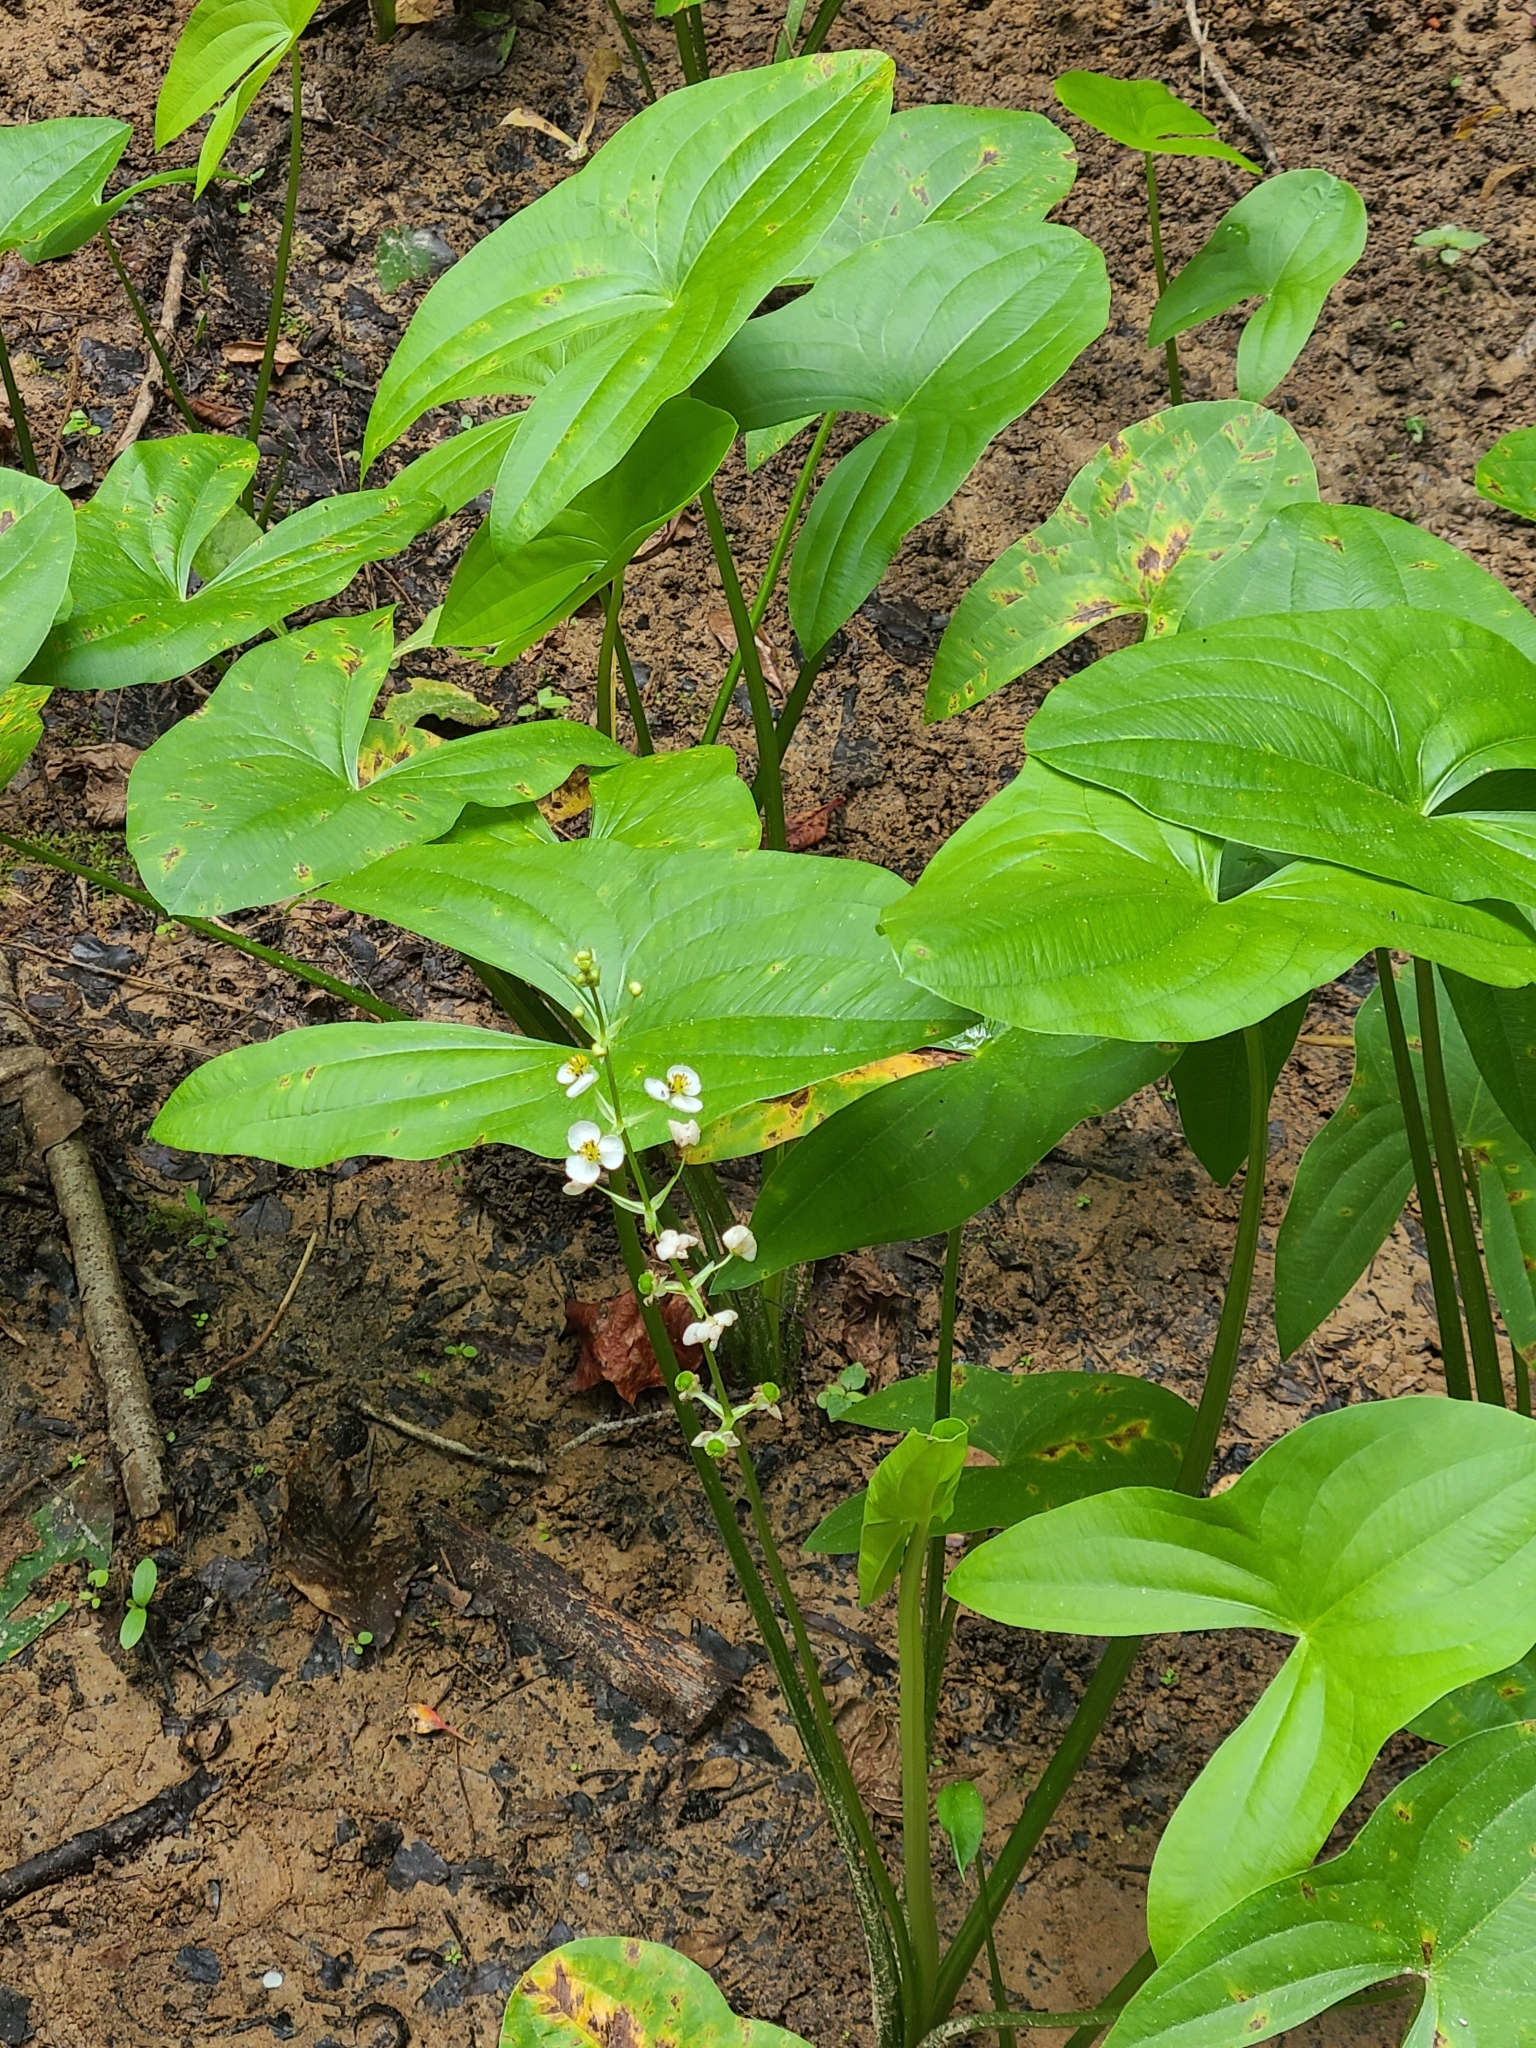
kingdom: Plantae
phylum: Tracheophyta
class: Liliopsida
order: Alismatales
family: Alismataceae
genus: Sagittaria
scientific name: Sagittaria australis
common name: Appalachian arrowhead
